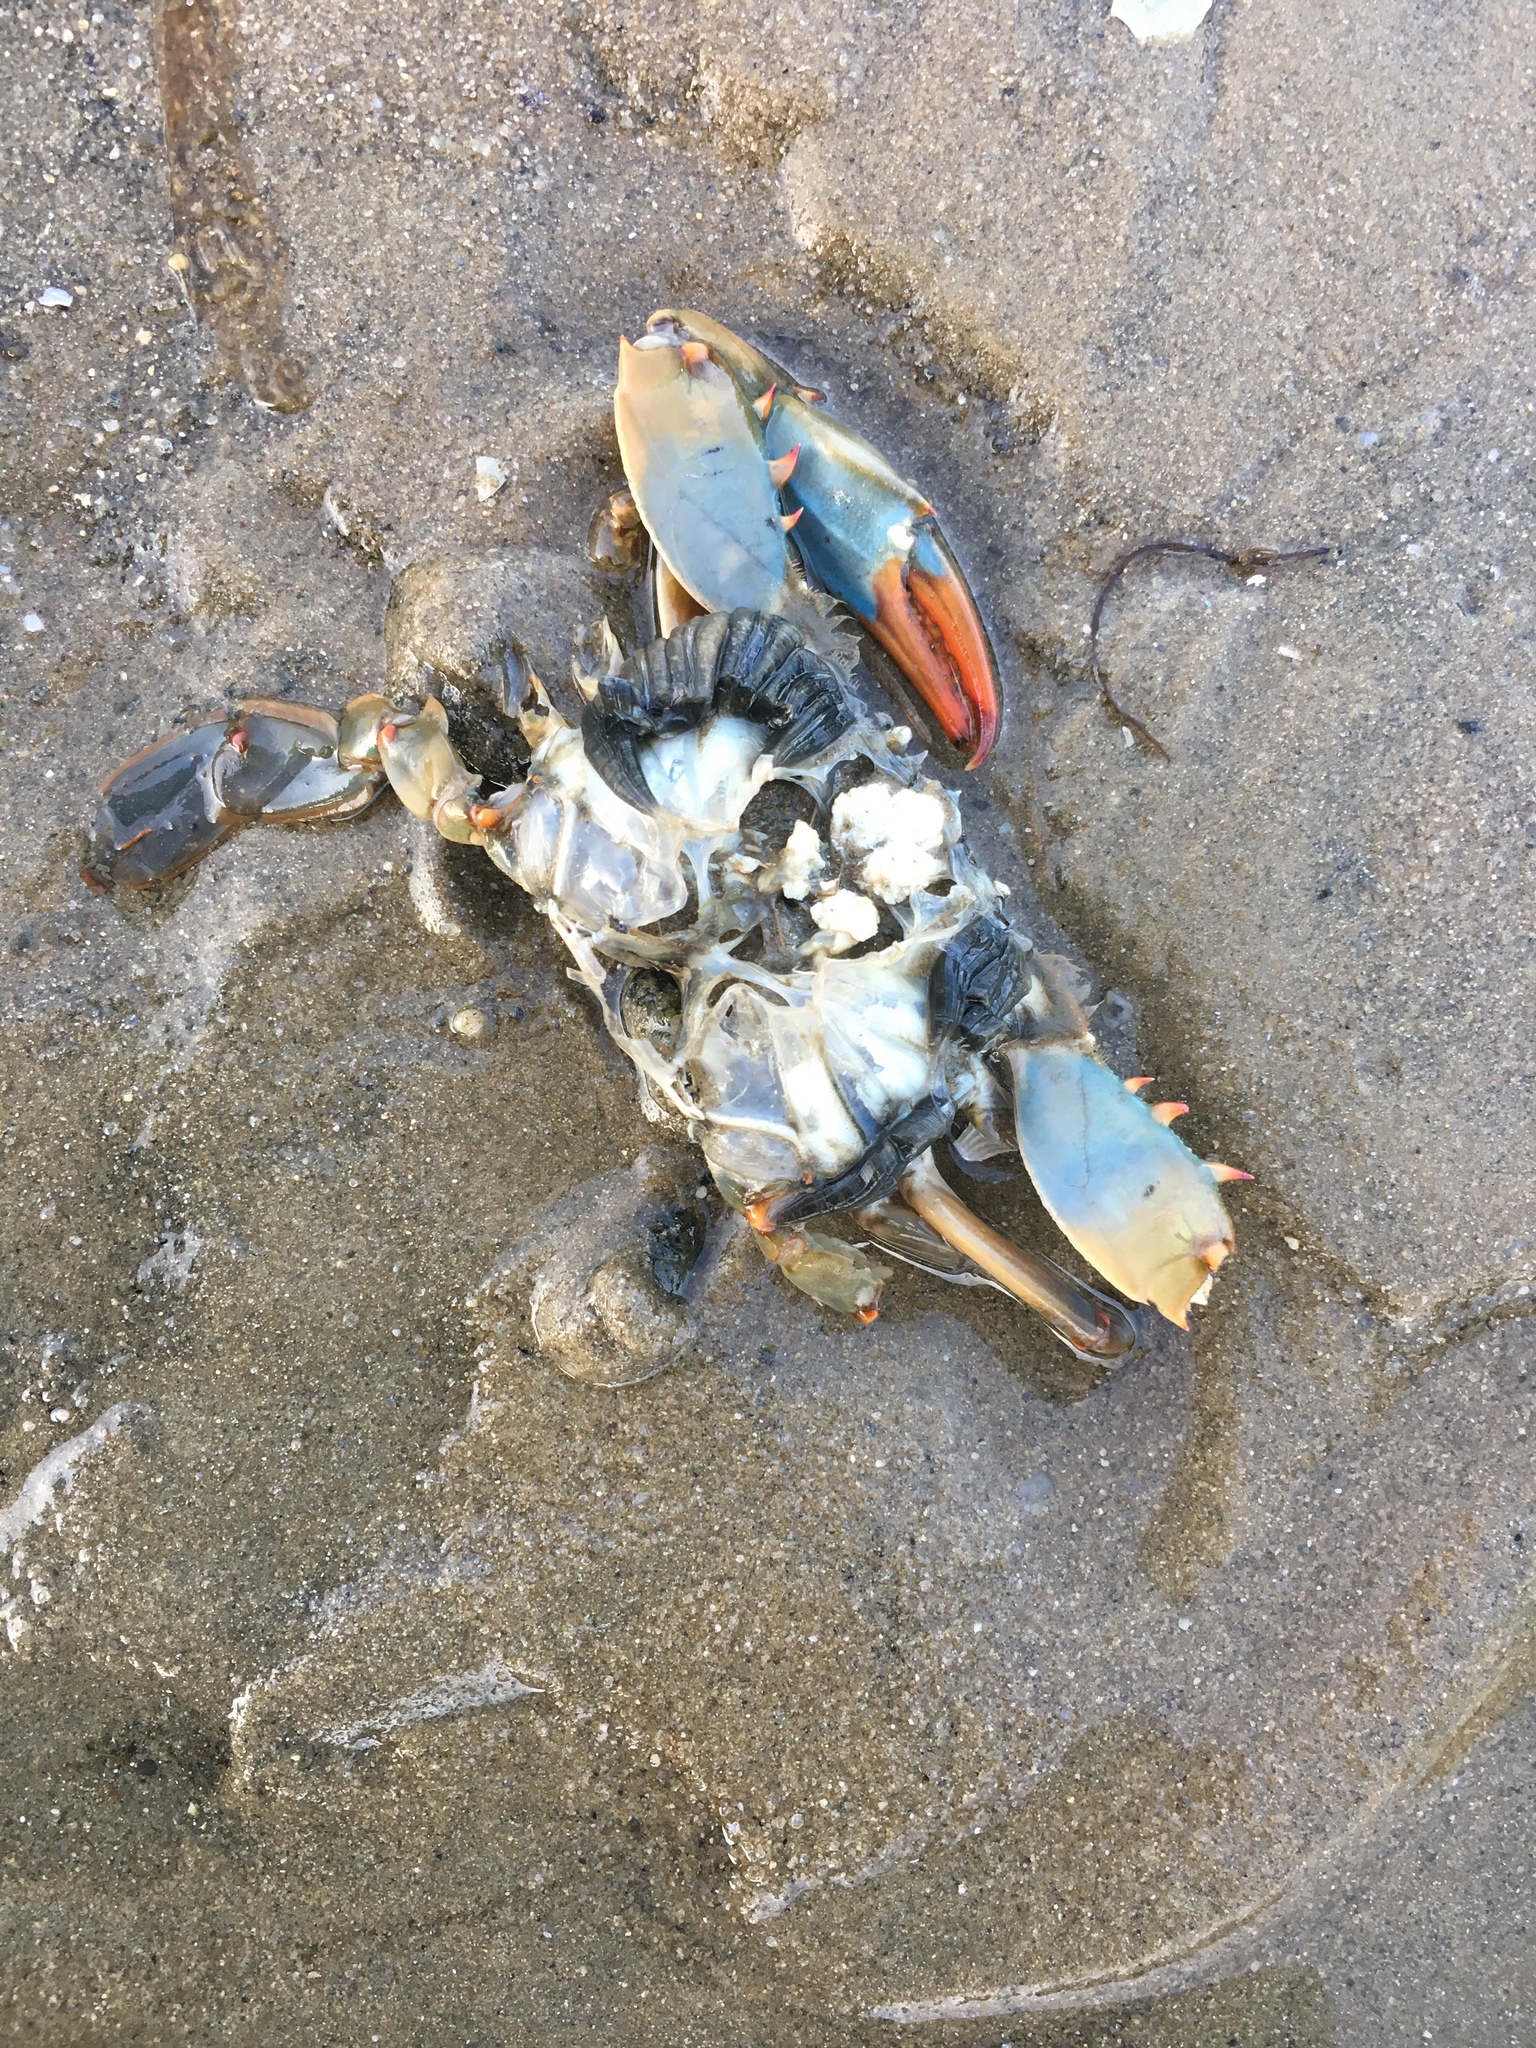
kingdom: Animalia
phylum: Arthropoda
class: Malacostraca
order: Decapoda
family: Portunidae
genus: Callinectes
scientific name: Callinectes sapidus
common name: Blue crab
